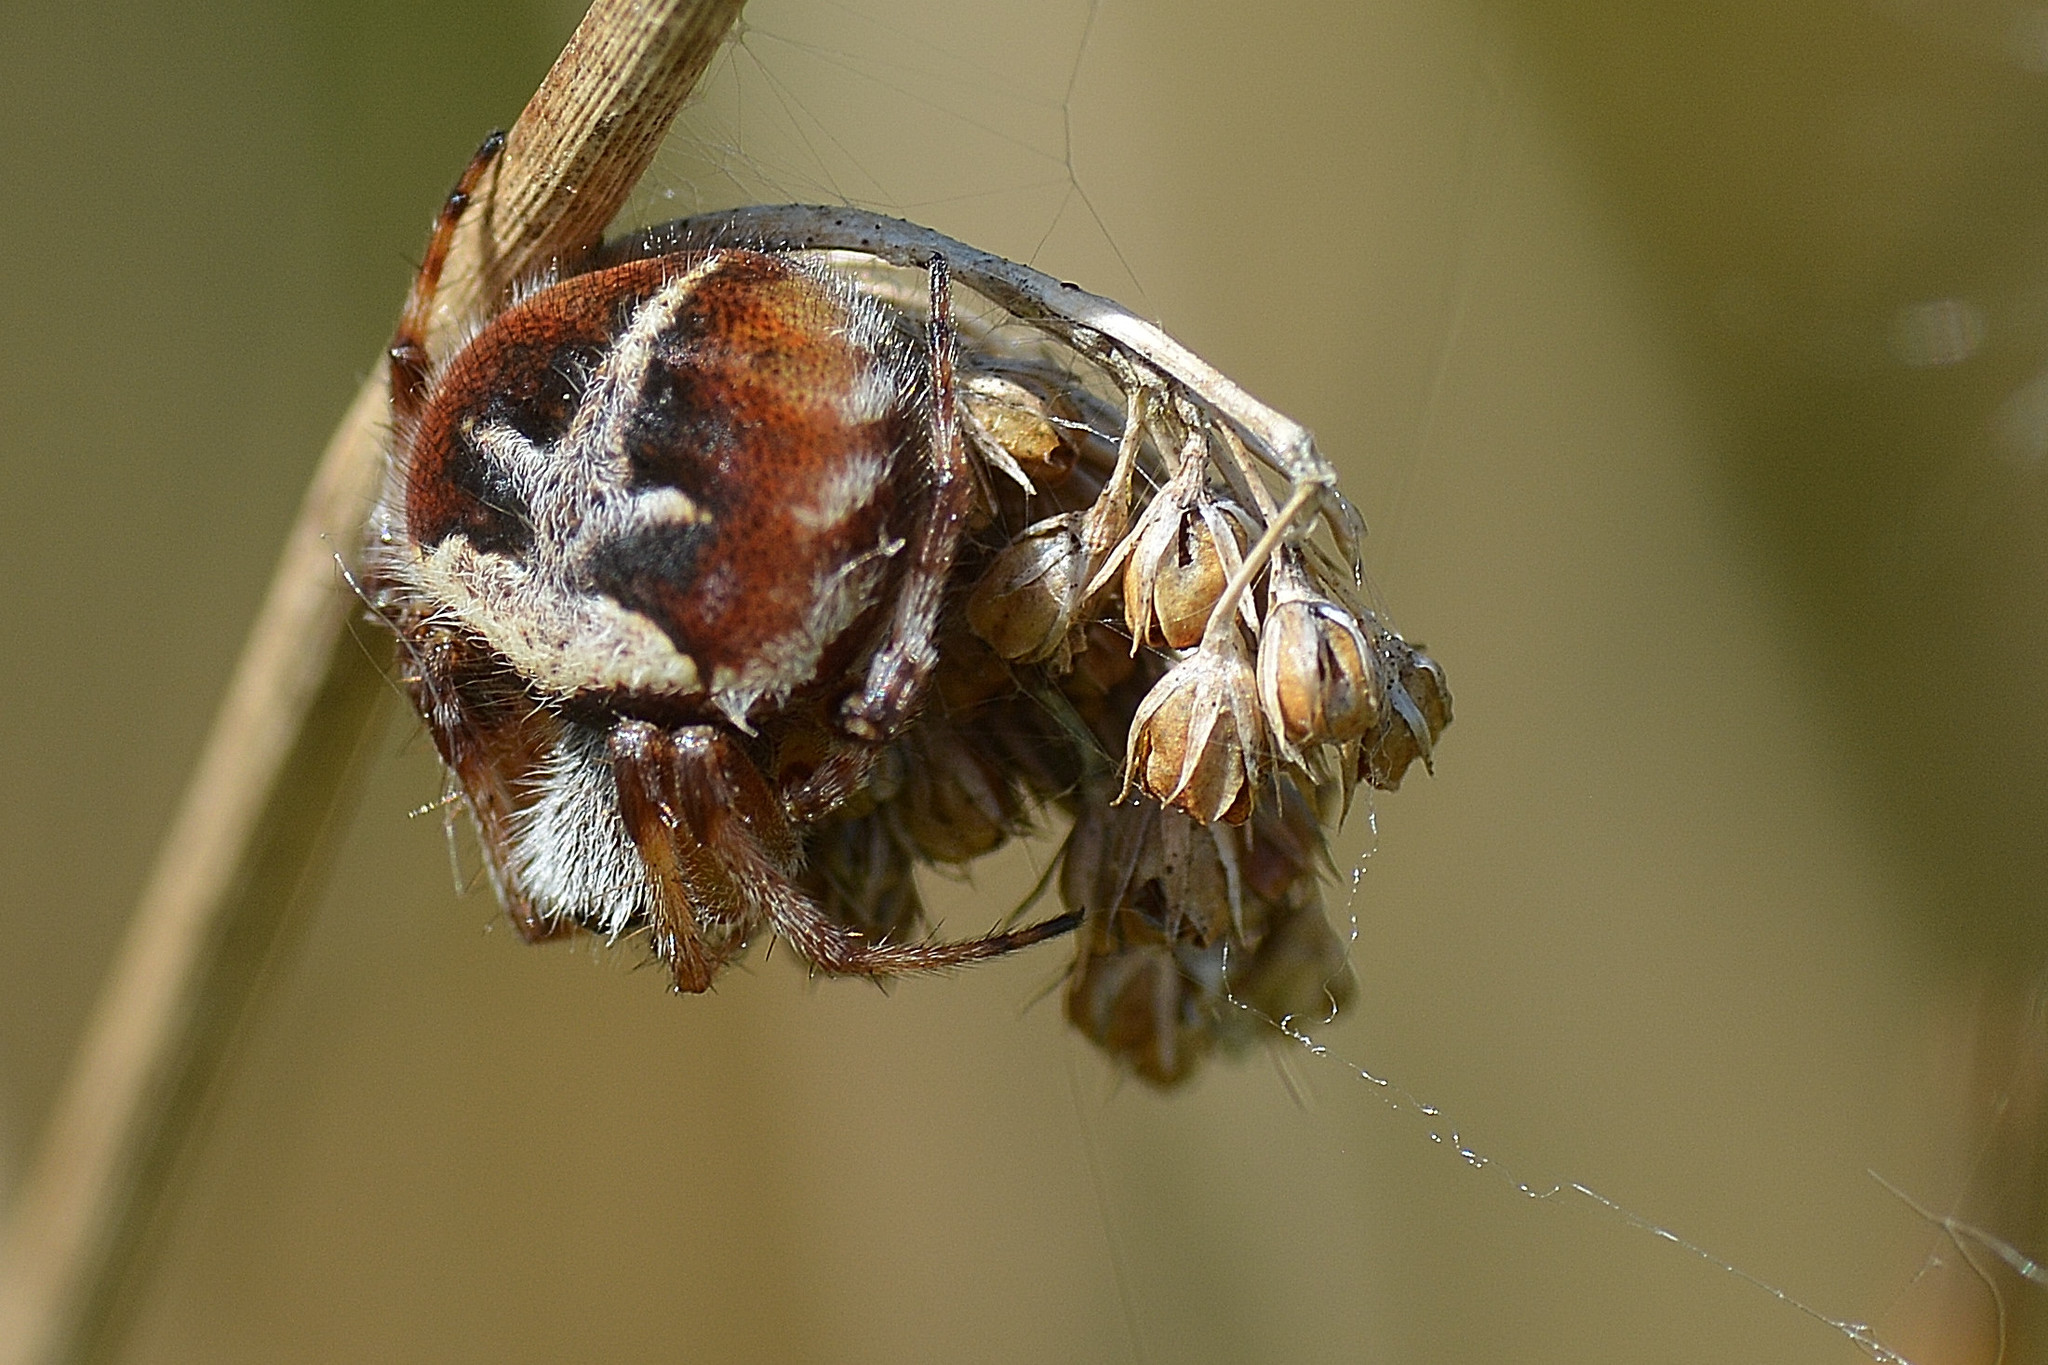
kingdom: Animalia
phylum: Arthropoda
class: Arachnida
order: Araneae
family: Araneidae
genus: Agalenatea
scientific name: Agalenatea redii
